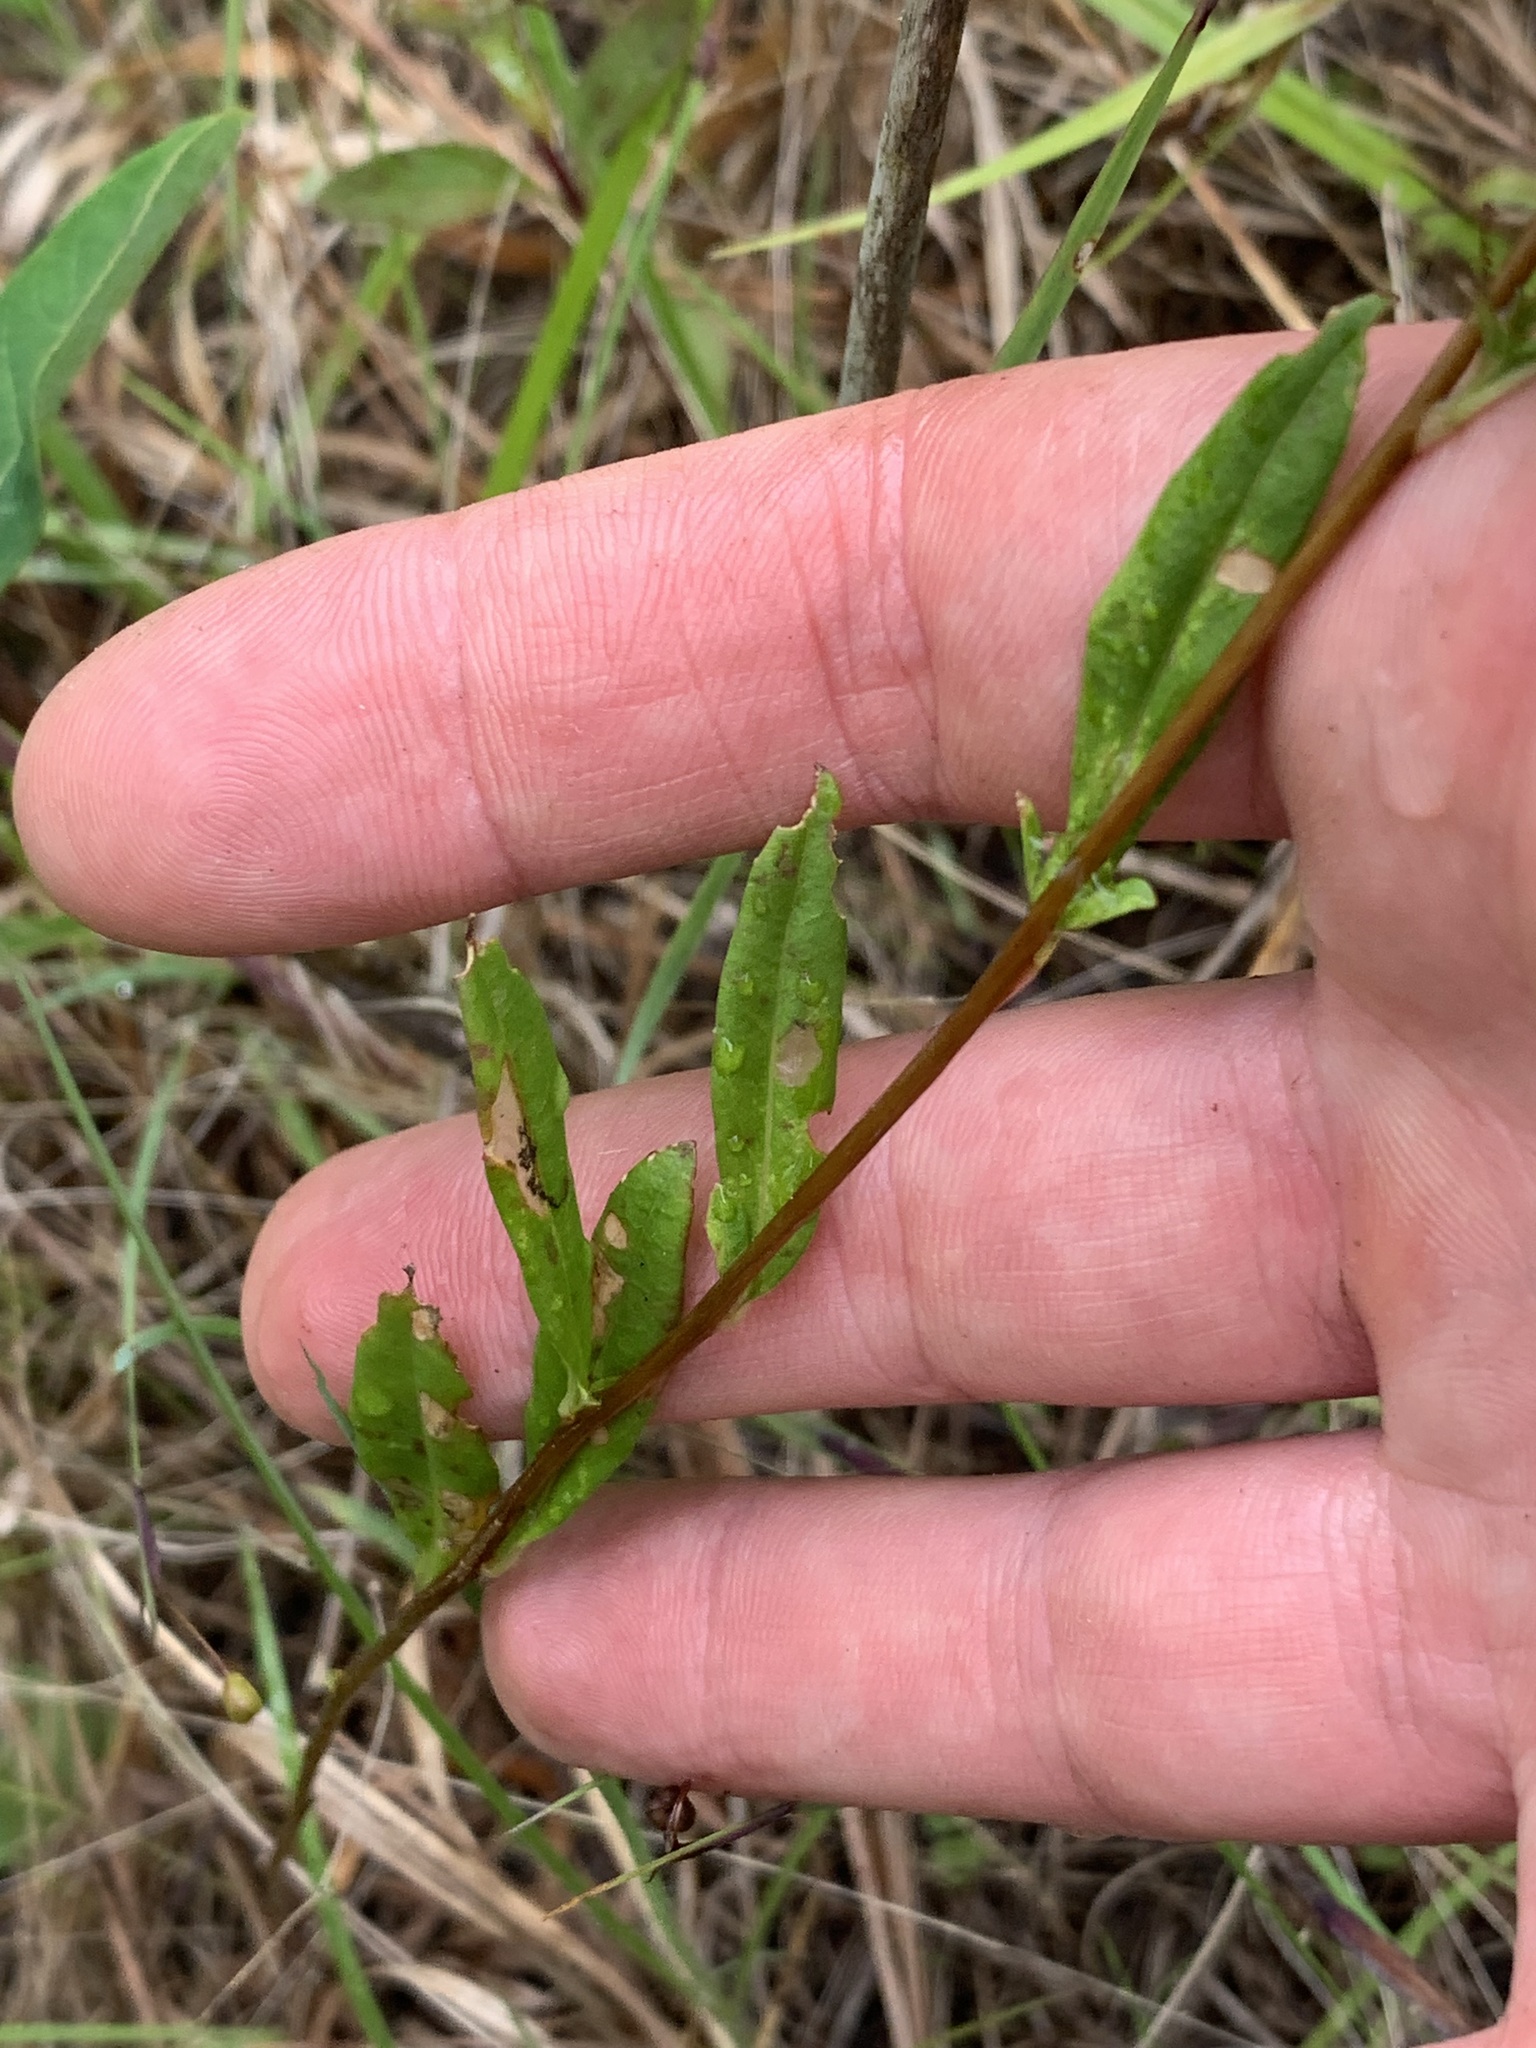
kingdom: Plantae
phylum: Tracheophyta
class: Magnoliopsida
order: Myrtales
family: Onagraceae
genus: Oenothera
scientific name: Oenothera fruticosa
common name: Southern sundrops
